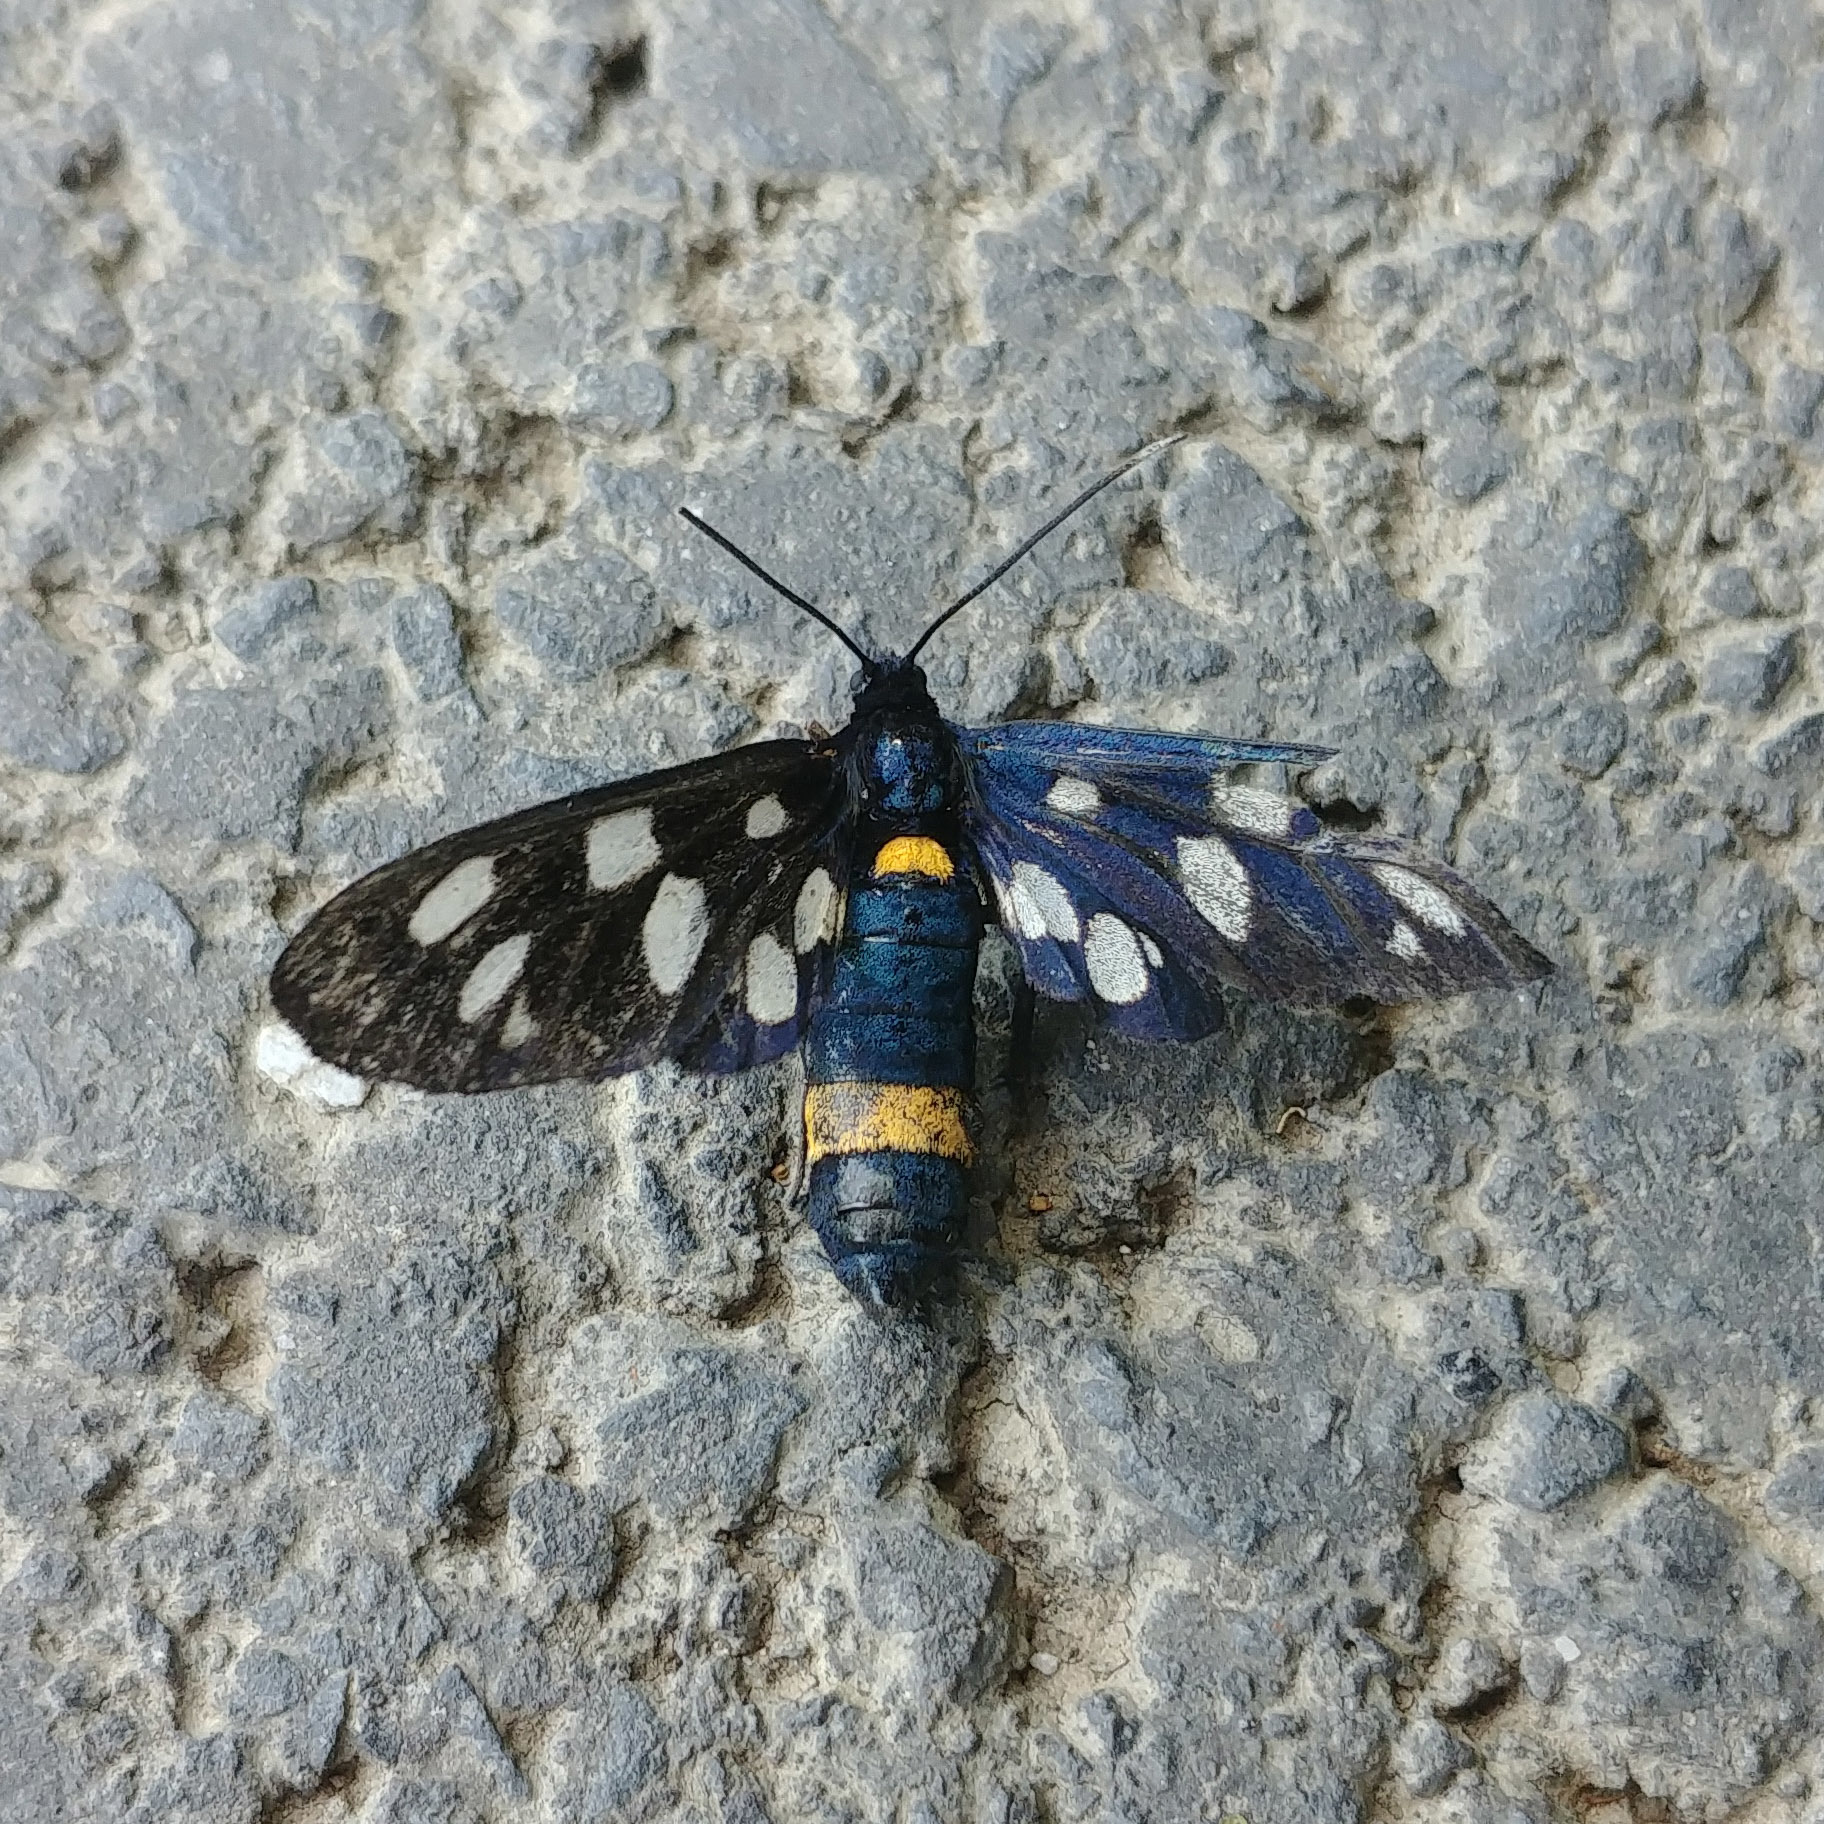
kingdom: Animalia
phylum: Arthropoda
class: Insecta
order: Lepidoptera
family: Erebidae
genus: Amata
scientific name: Amata phegea
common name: Nine-spotted
